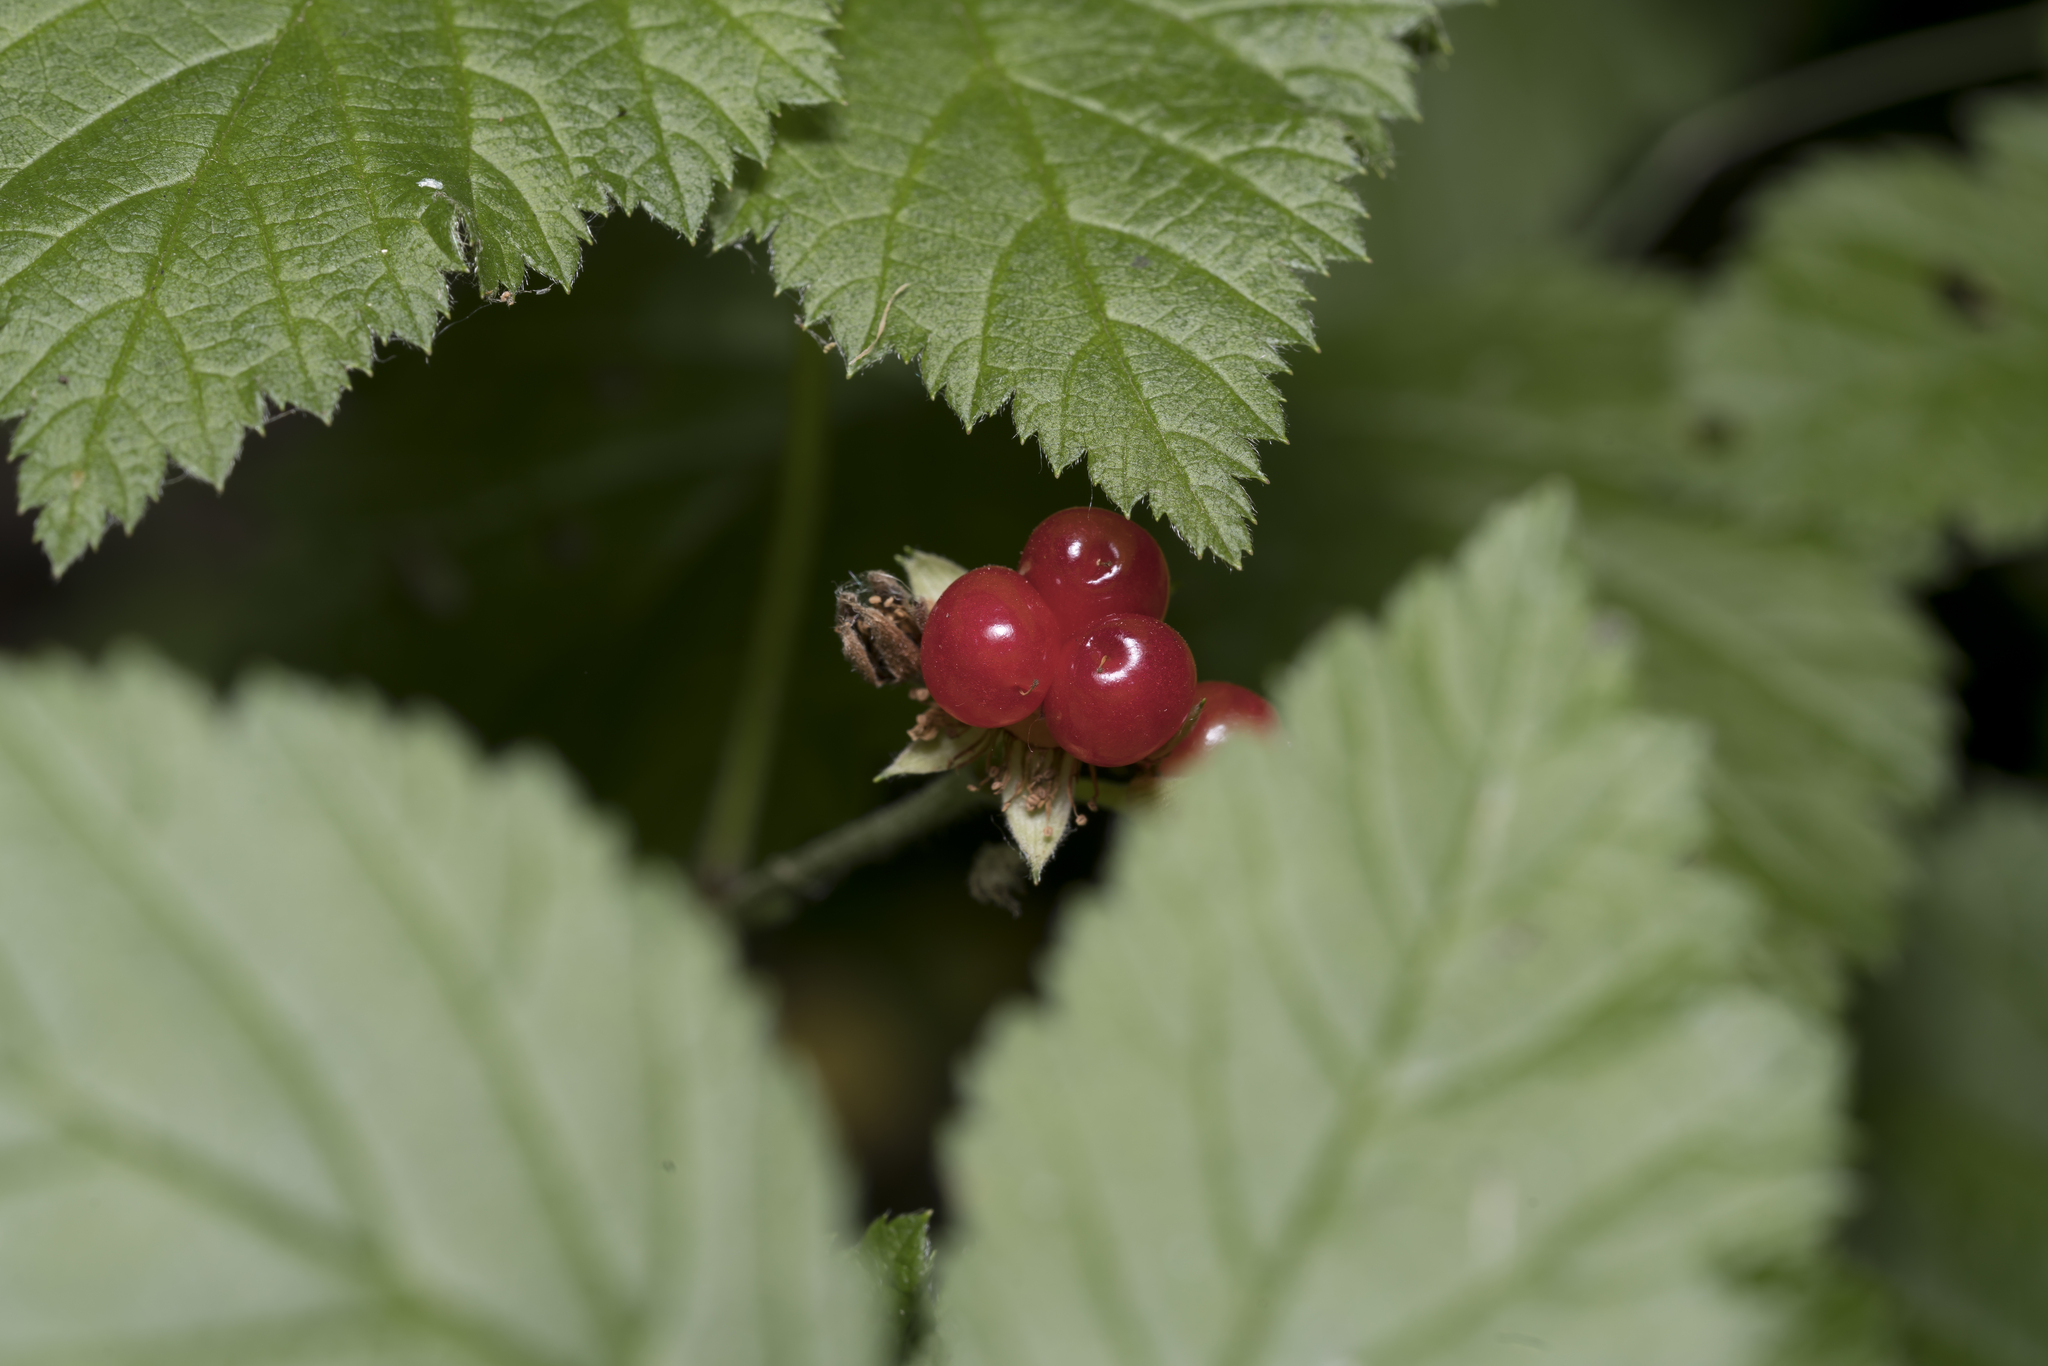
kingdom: Plantae
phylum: Tracheophyta
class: Magnoliopsida
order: Rosales
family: Rosaceae
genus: Rubus
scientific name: Rubus saxatilis
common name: Stone bramble
